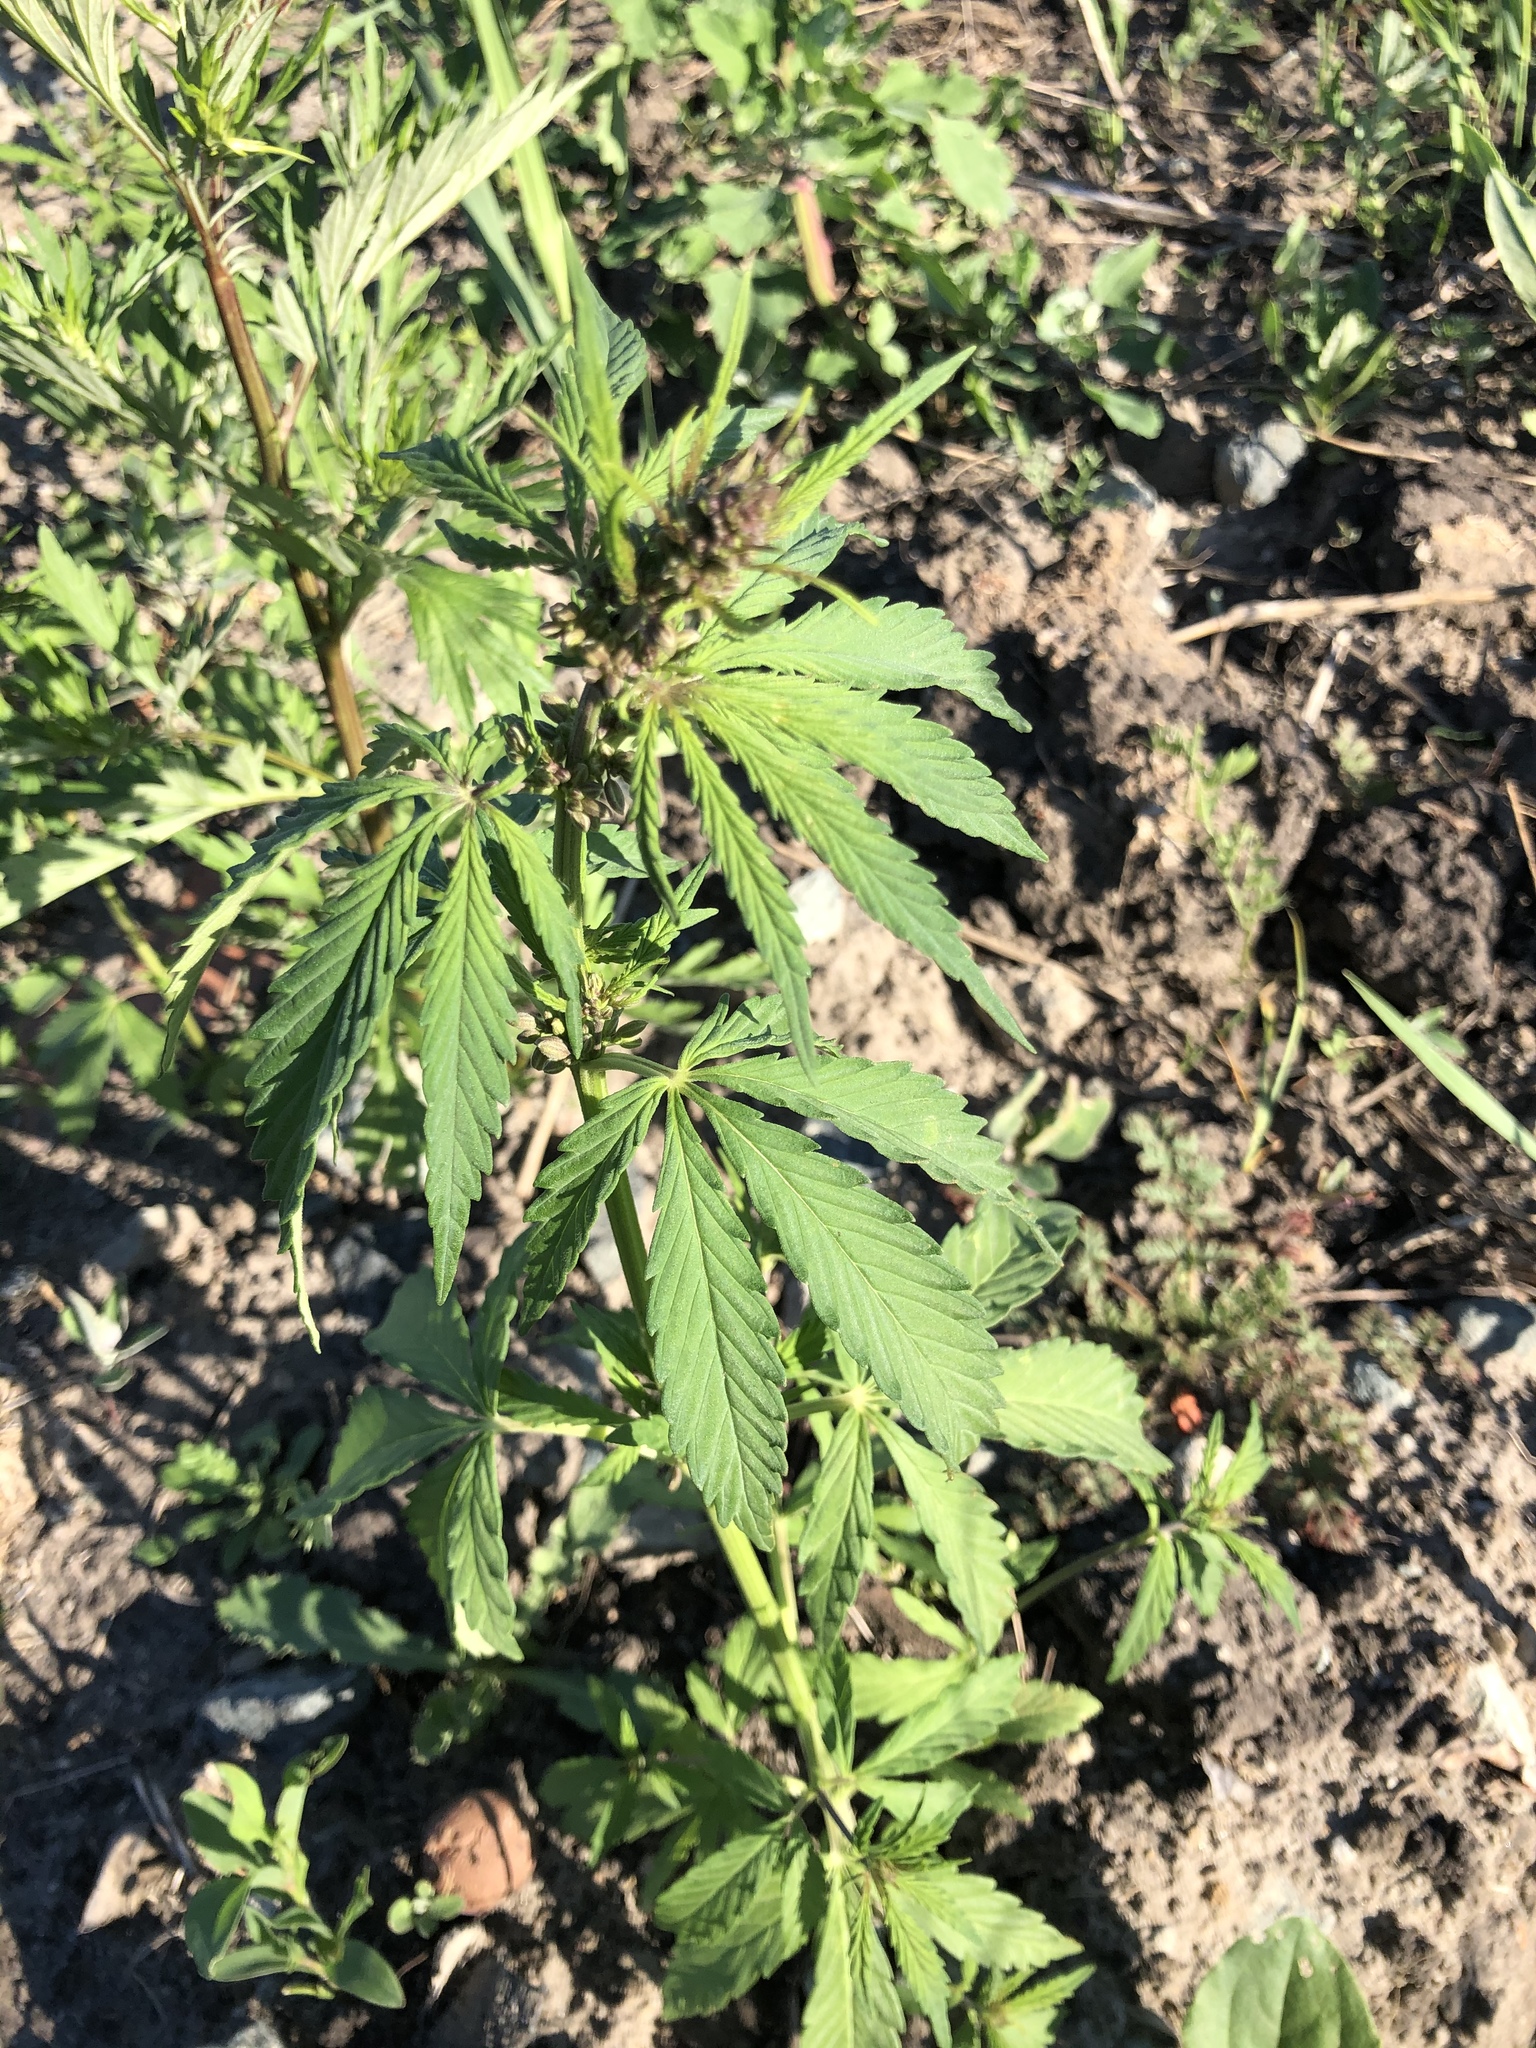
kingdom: Plantae
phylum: Tracheophyta
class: Magnoliopsida
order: Rosales
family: Cannabaceae
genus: Cannabis
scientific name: Cannabis sativa
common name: Hemp
